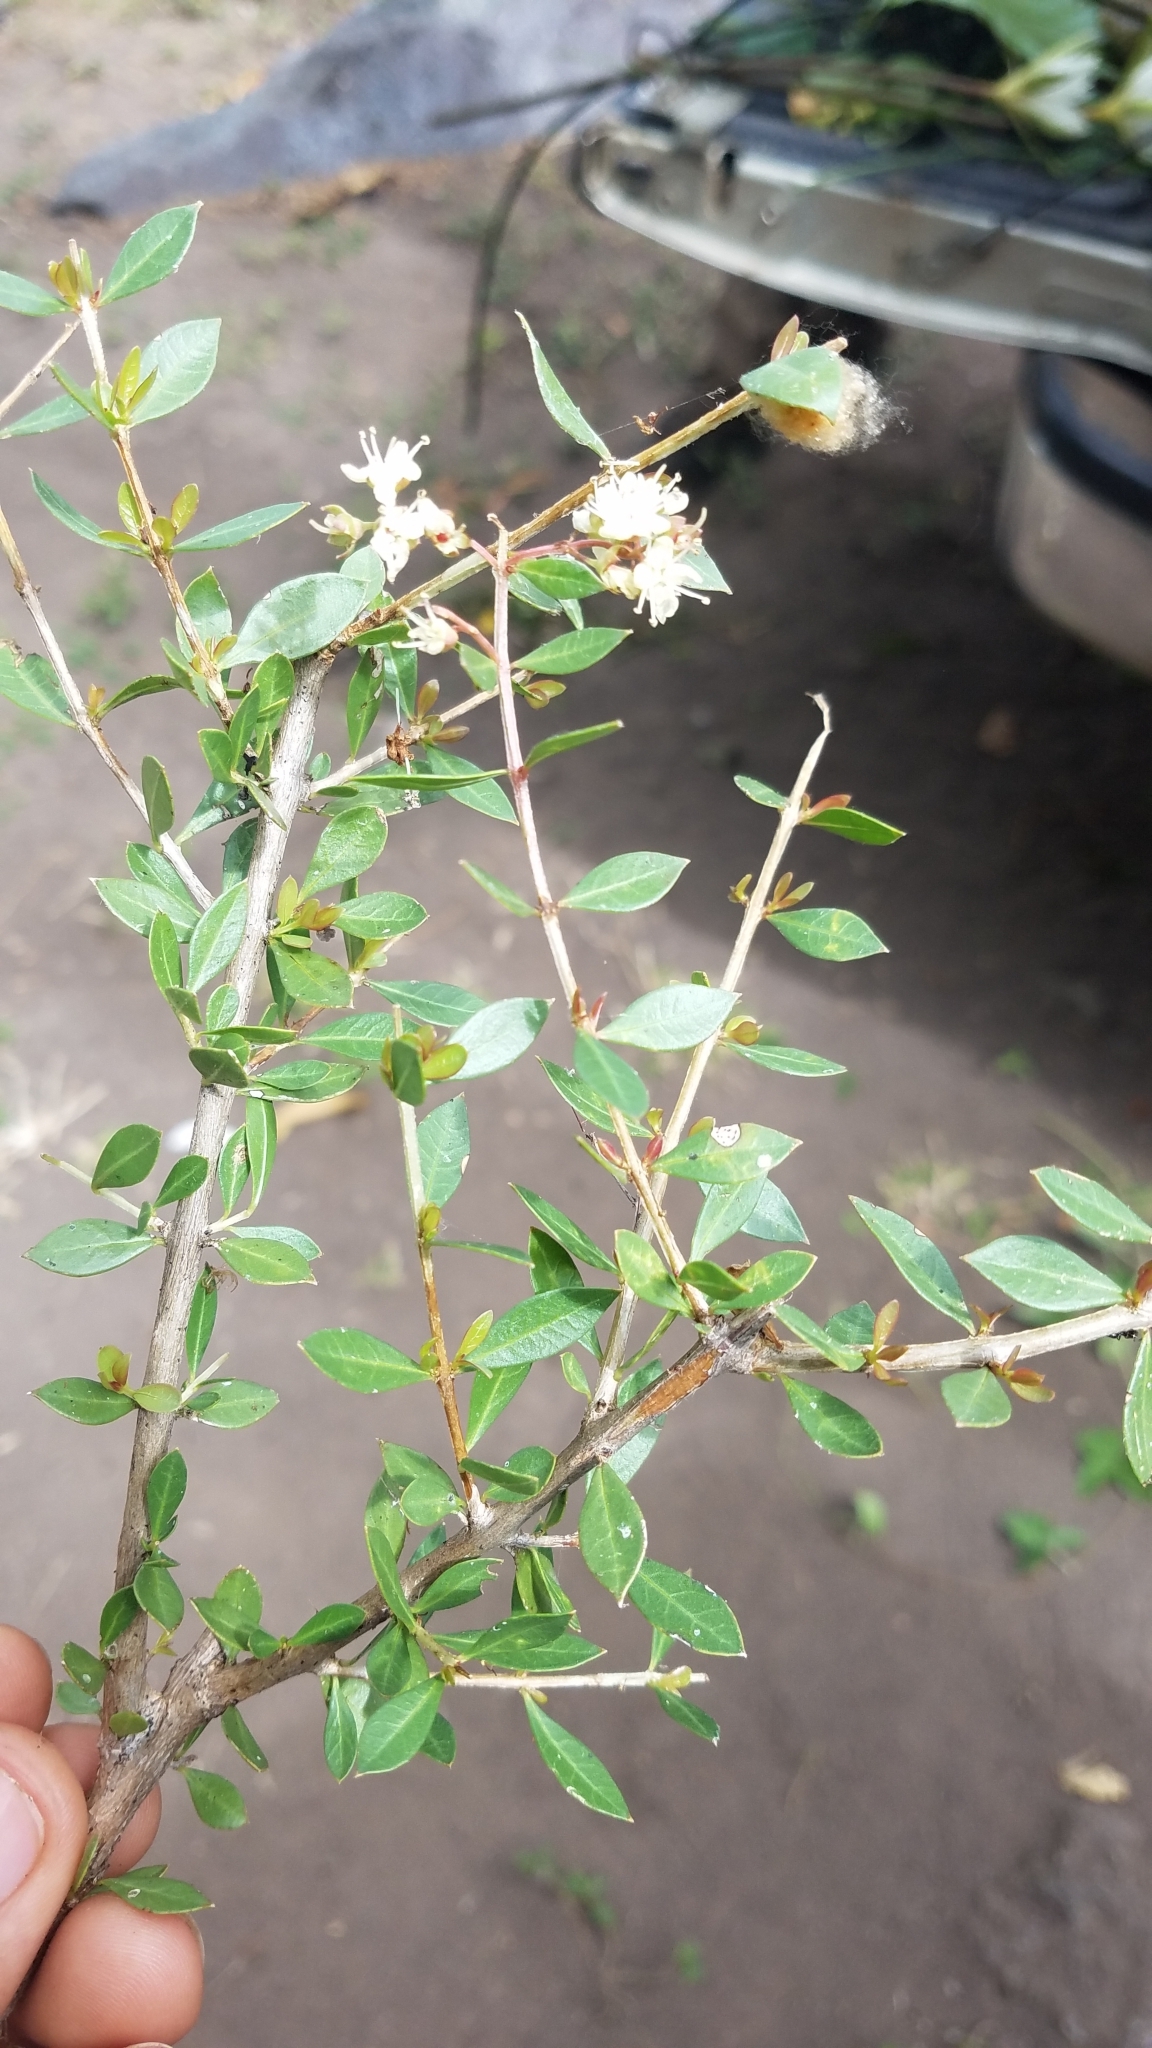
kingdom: Plantae
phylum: Tracheophyta
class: Magnoliopsida
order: Myrtales
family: Lythraceae
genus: Lawsonia
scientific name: Lawsonia inermis
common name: Henna
